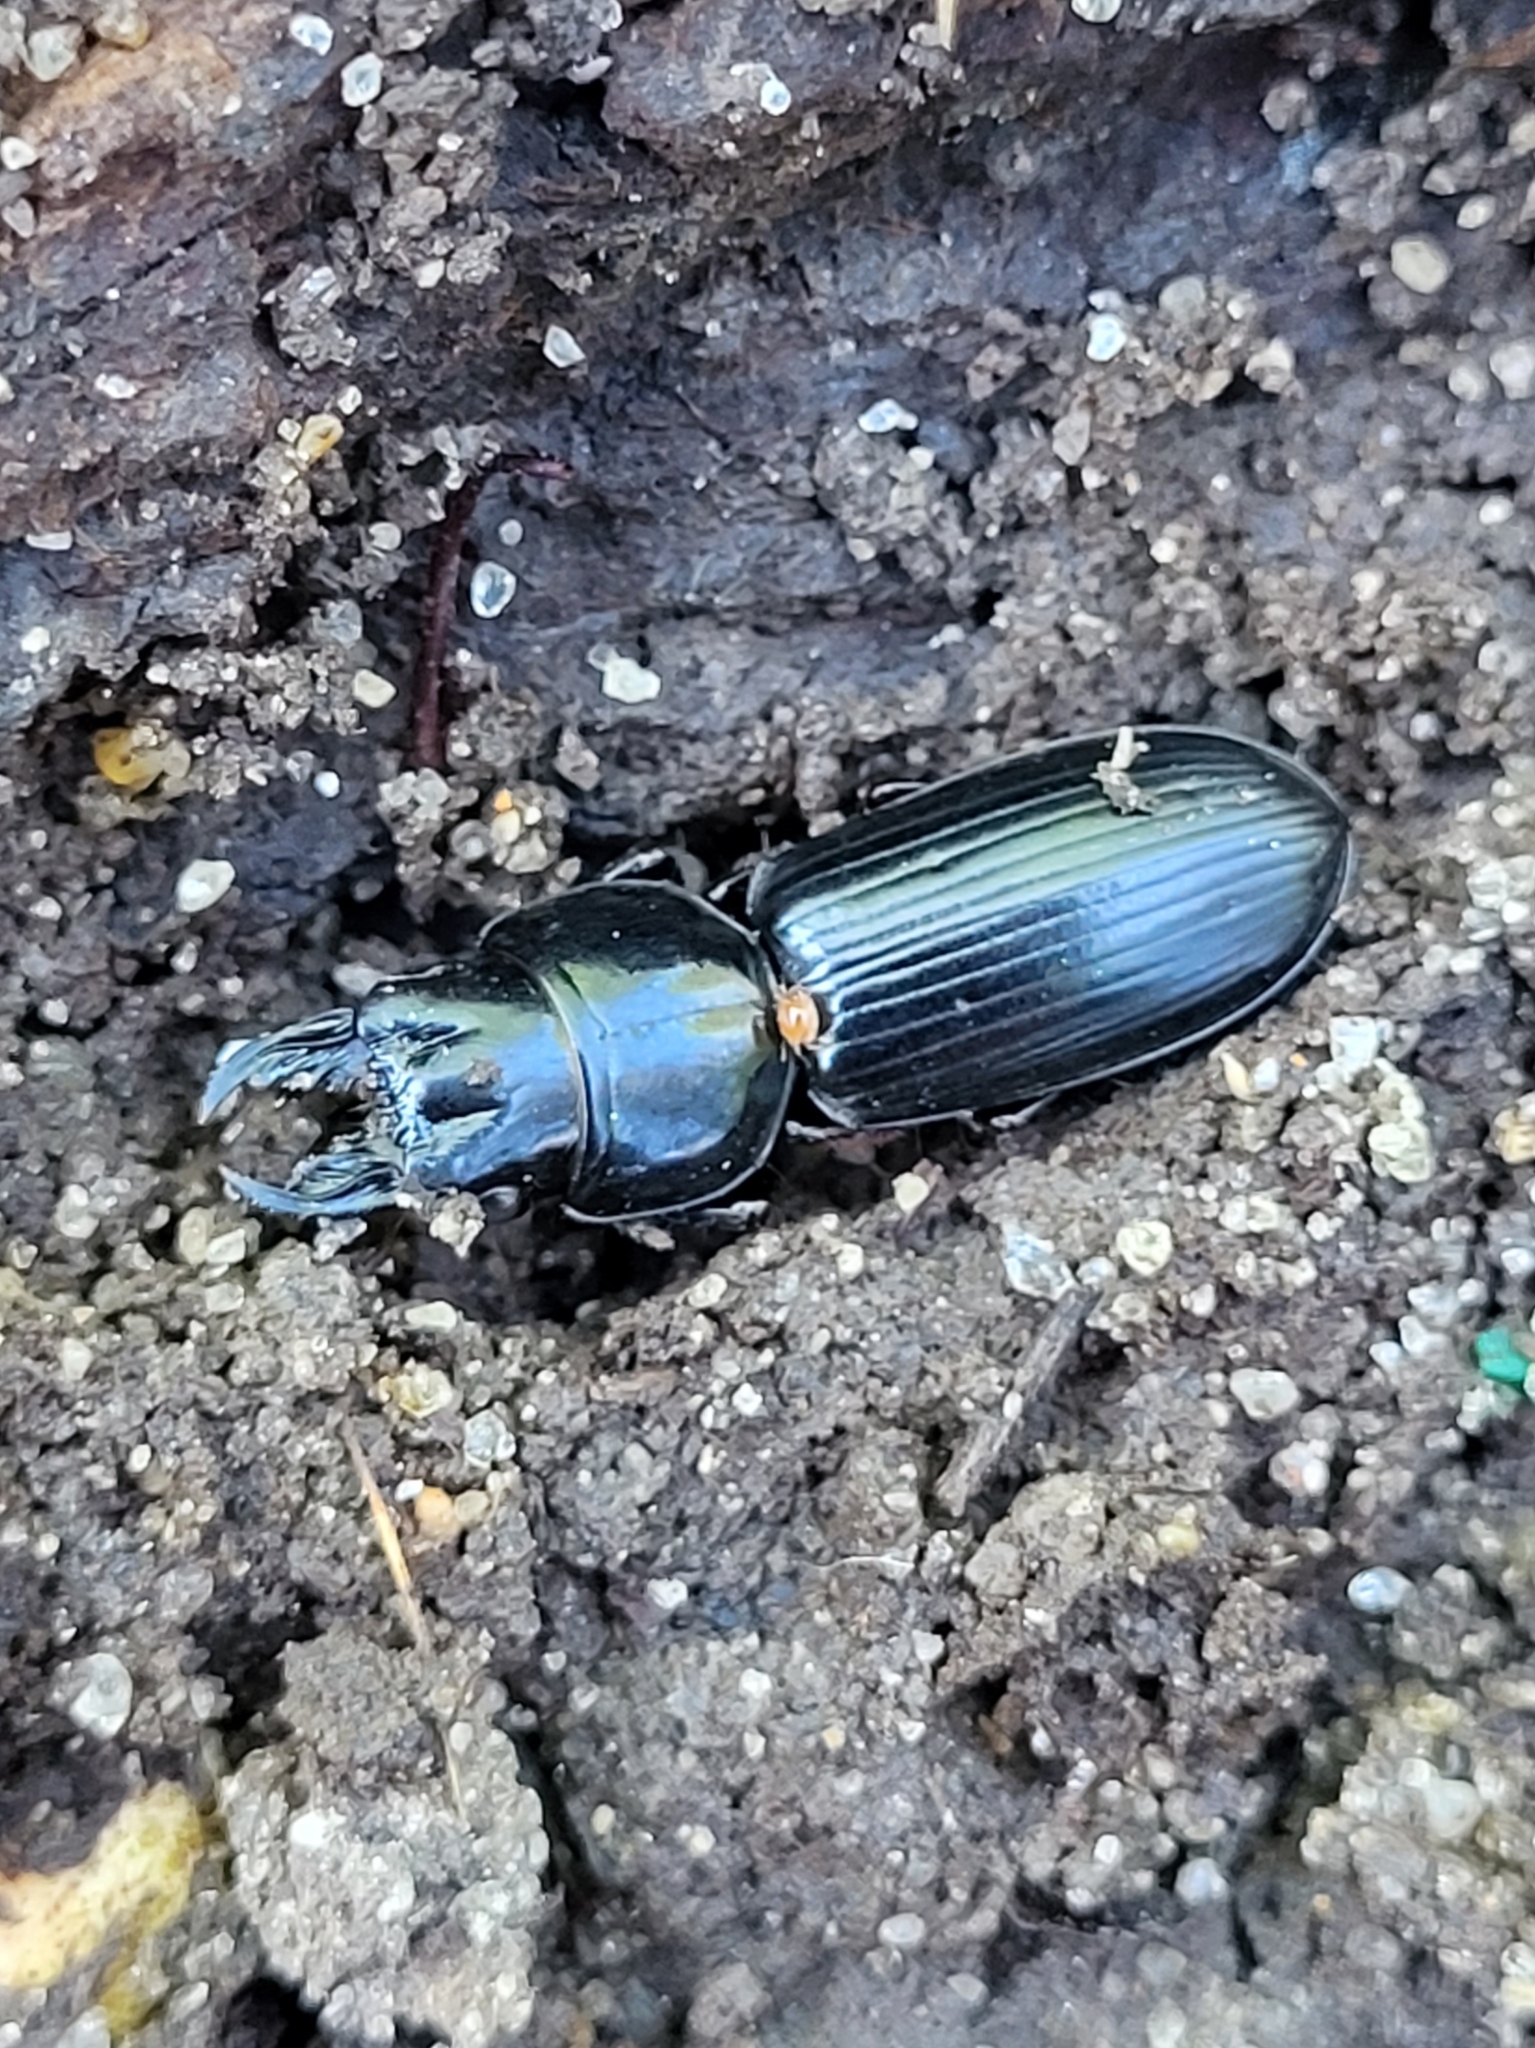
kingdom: Animalia
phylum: Arthropoda
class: Insecta
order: Coleoptera
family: Carabidae
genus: Scarites
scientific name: Scarites subterraneus
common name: Big-headed ground beetle
